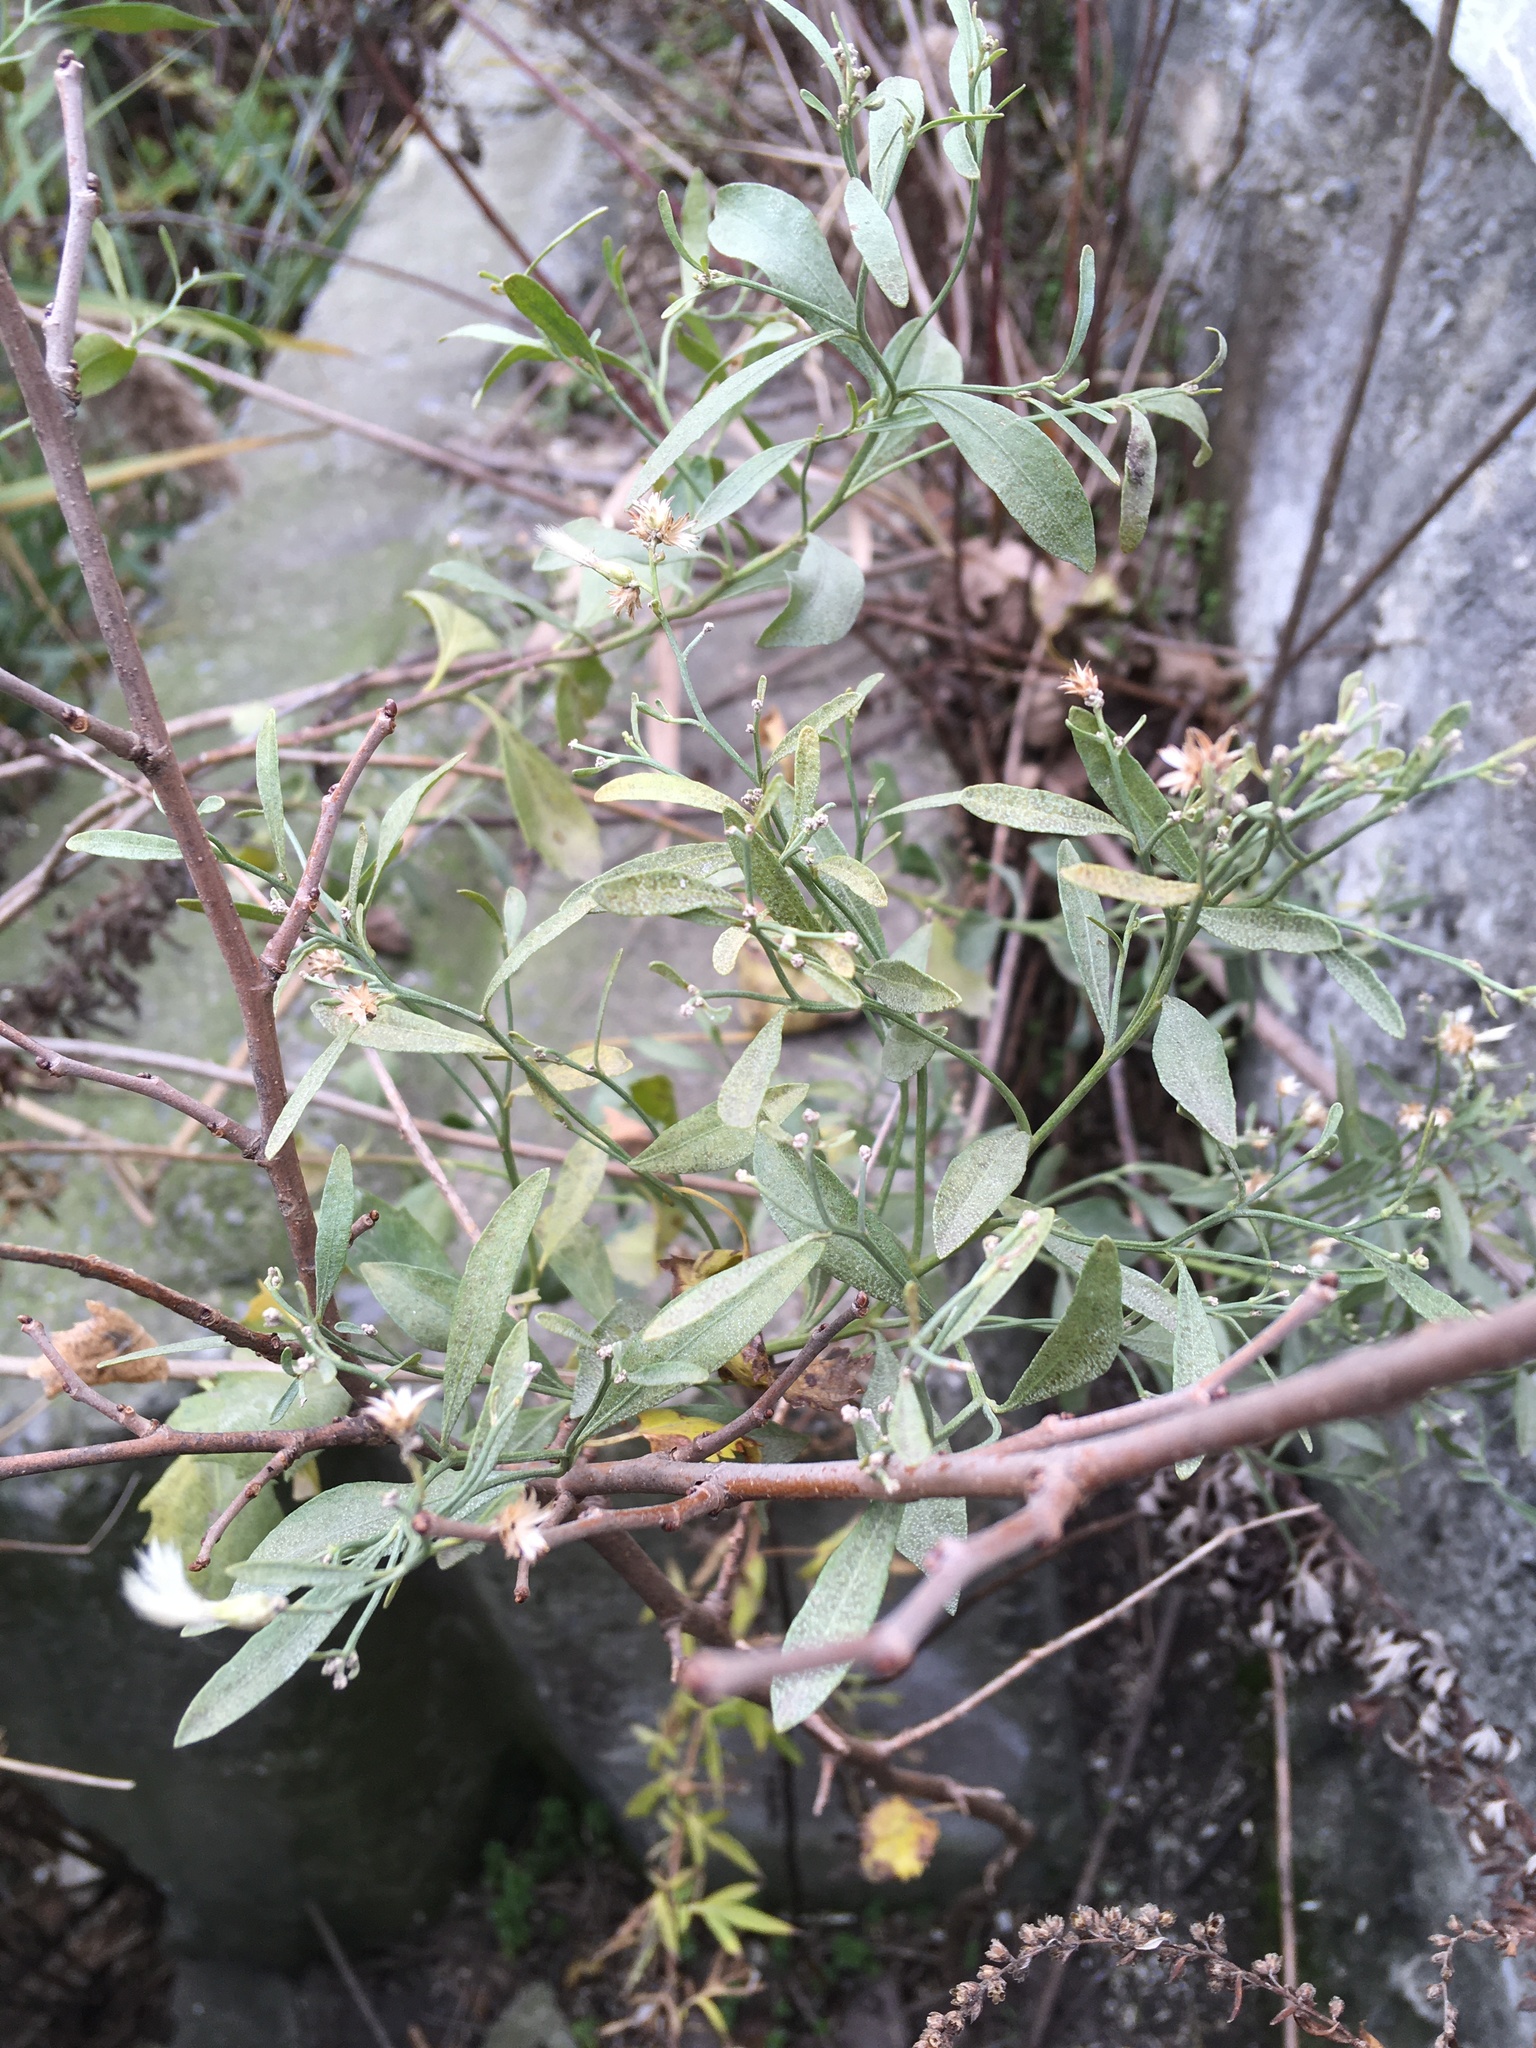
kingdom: Plantae
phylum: Tracheophyta
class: Magnoliopsida
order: Asterales
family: Asteraceae
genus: Baccharis
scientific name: Baccharis halimifolia
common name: Eastern baccharis
